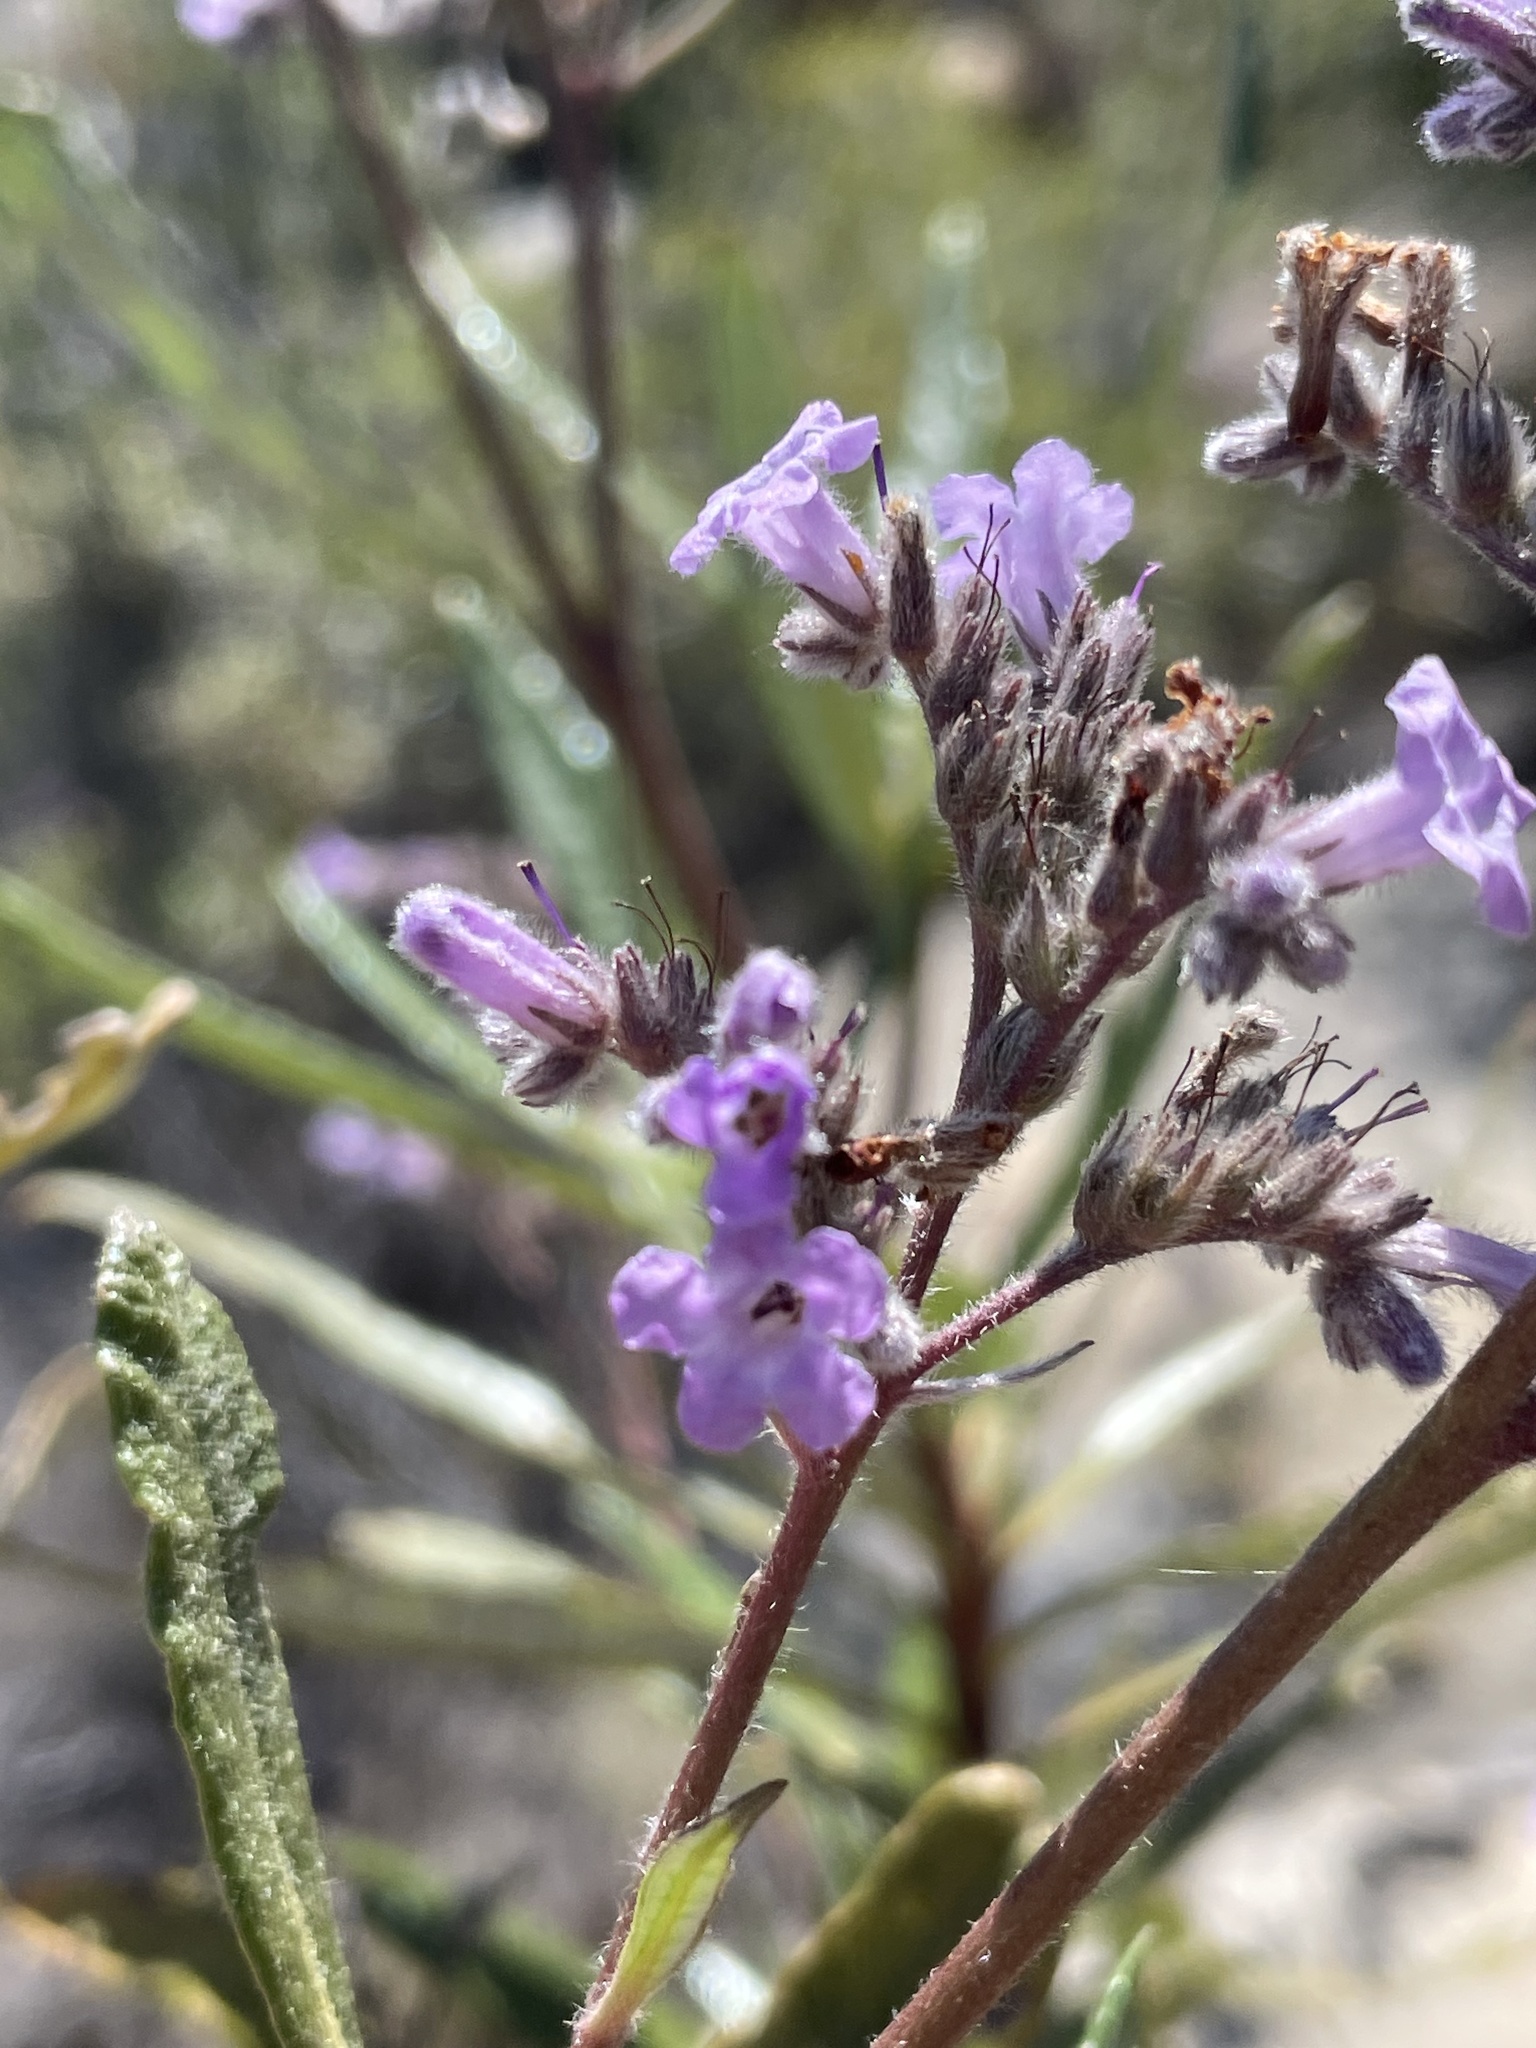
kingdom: Plantae
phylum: Tracheophyta
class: Magnoliopsida
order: Boraginales
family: Namaceae
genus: Eriodictyon
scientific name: Eriodictyon trichocalyx
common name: Hairy yerba-santa
